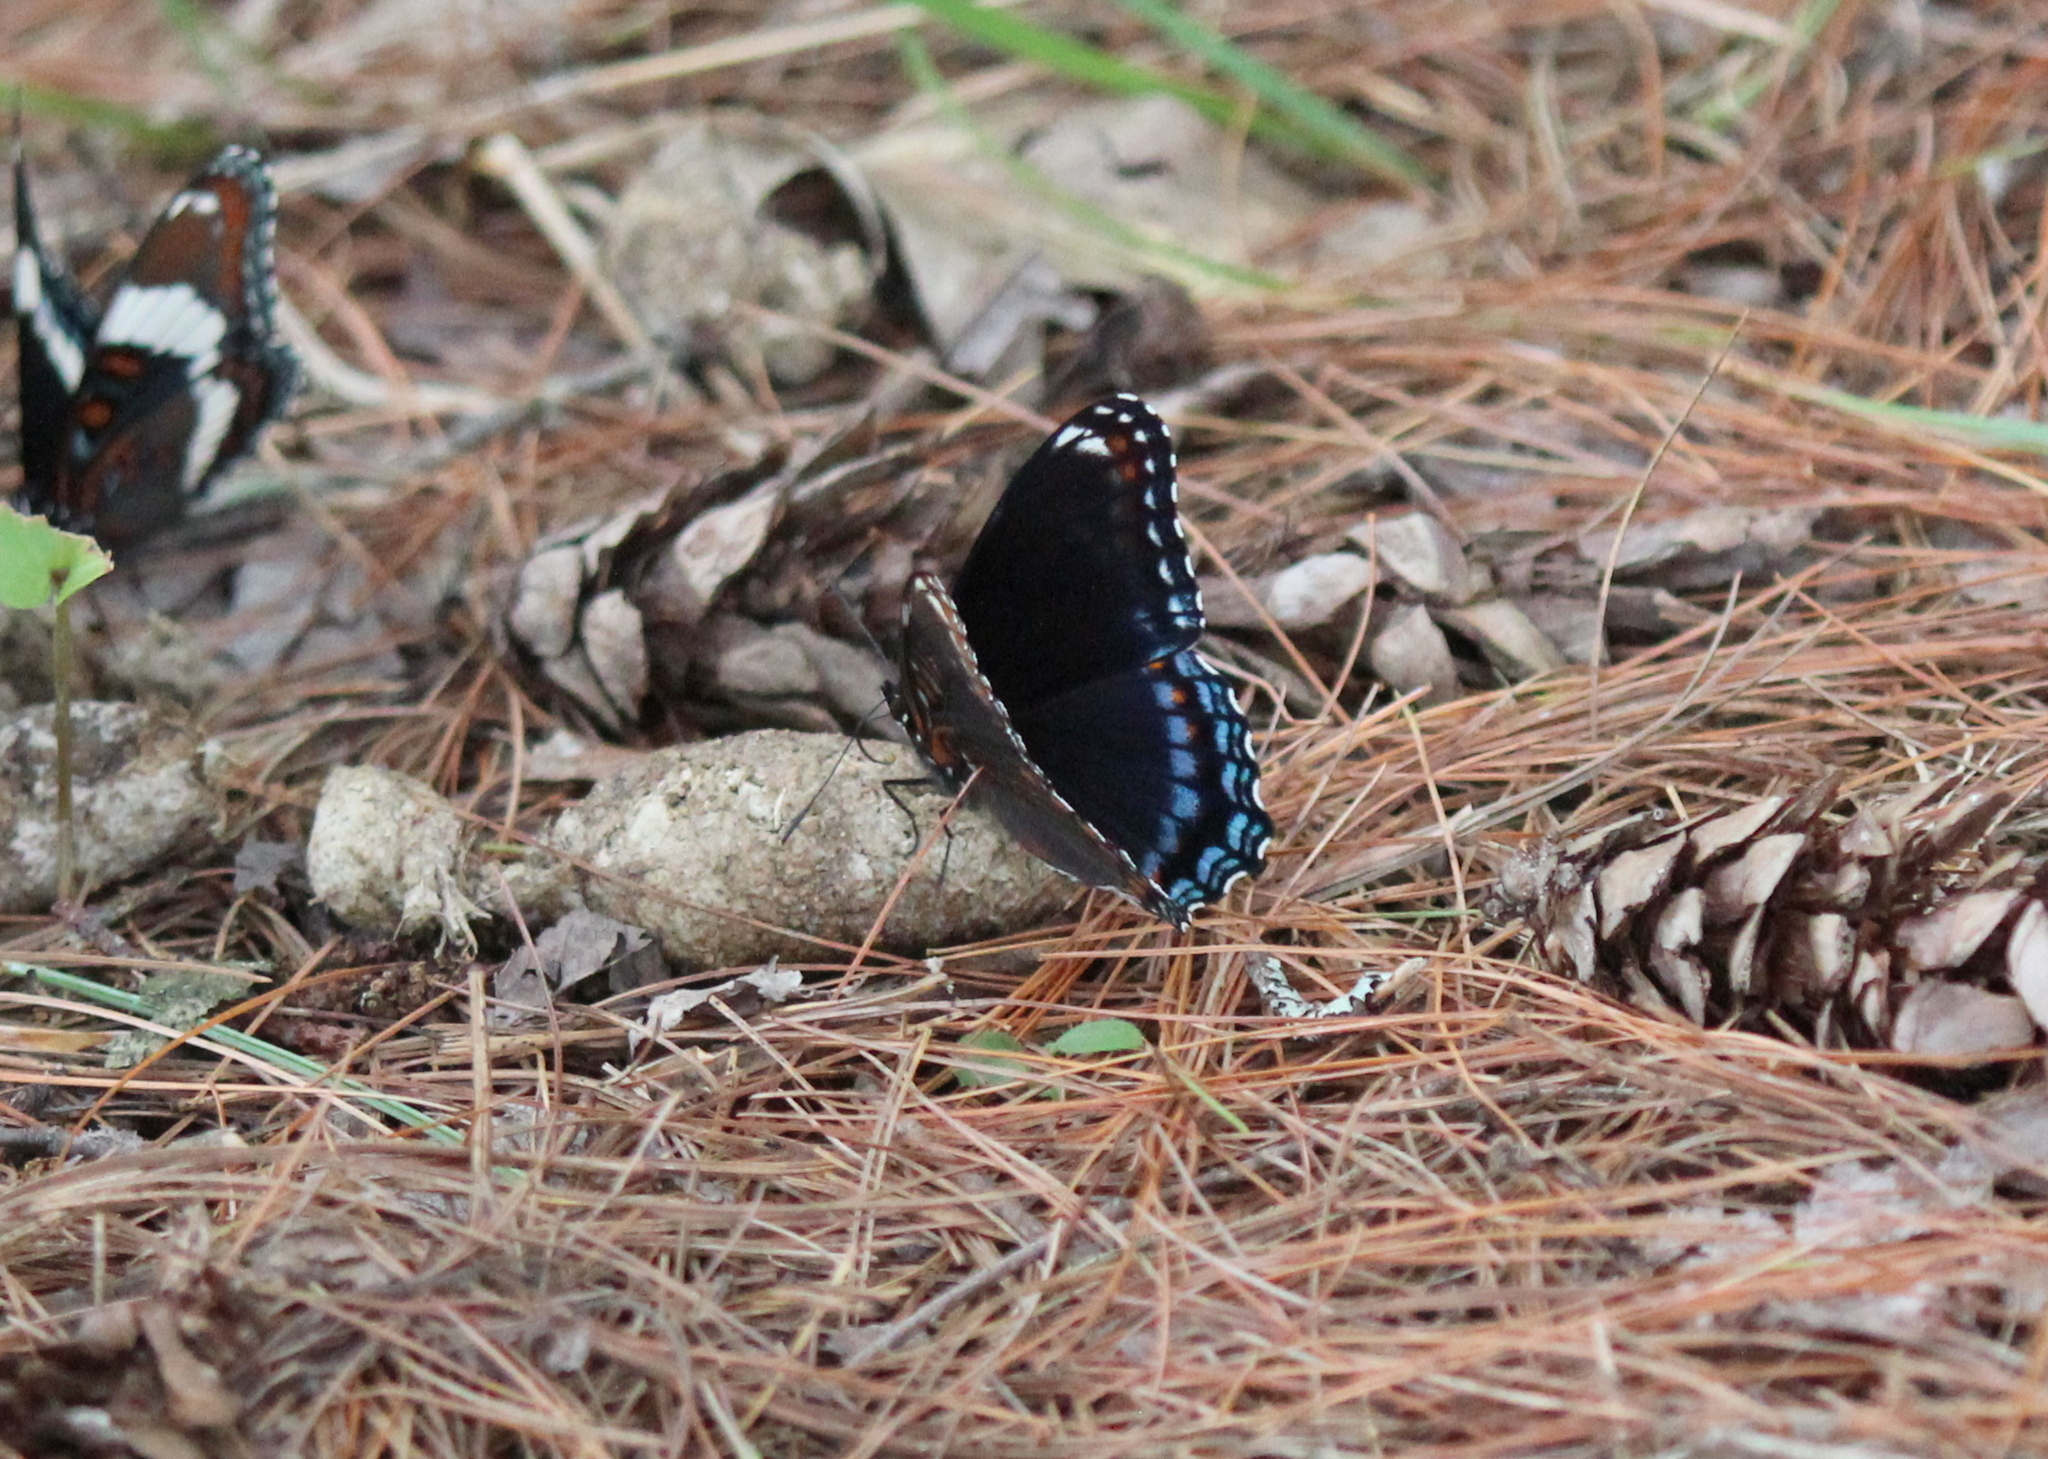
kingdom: Animalia
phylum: Arthropoda
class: Insecta
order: Lepidoptera
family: Nymphalidae
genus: Limenitis
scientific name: Limenitis astyanax
